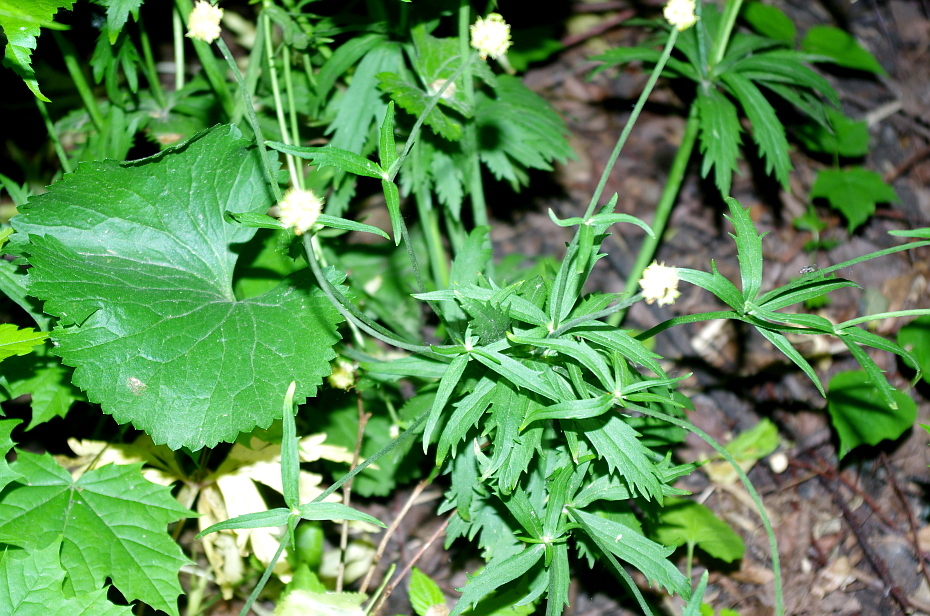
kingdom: Plantae
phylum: Tracheophyta
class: Magnoliopsida
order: Ranunculales
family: Ranunculaceae
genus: Ranunculus
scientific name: Ranunculus cassubicus
